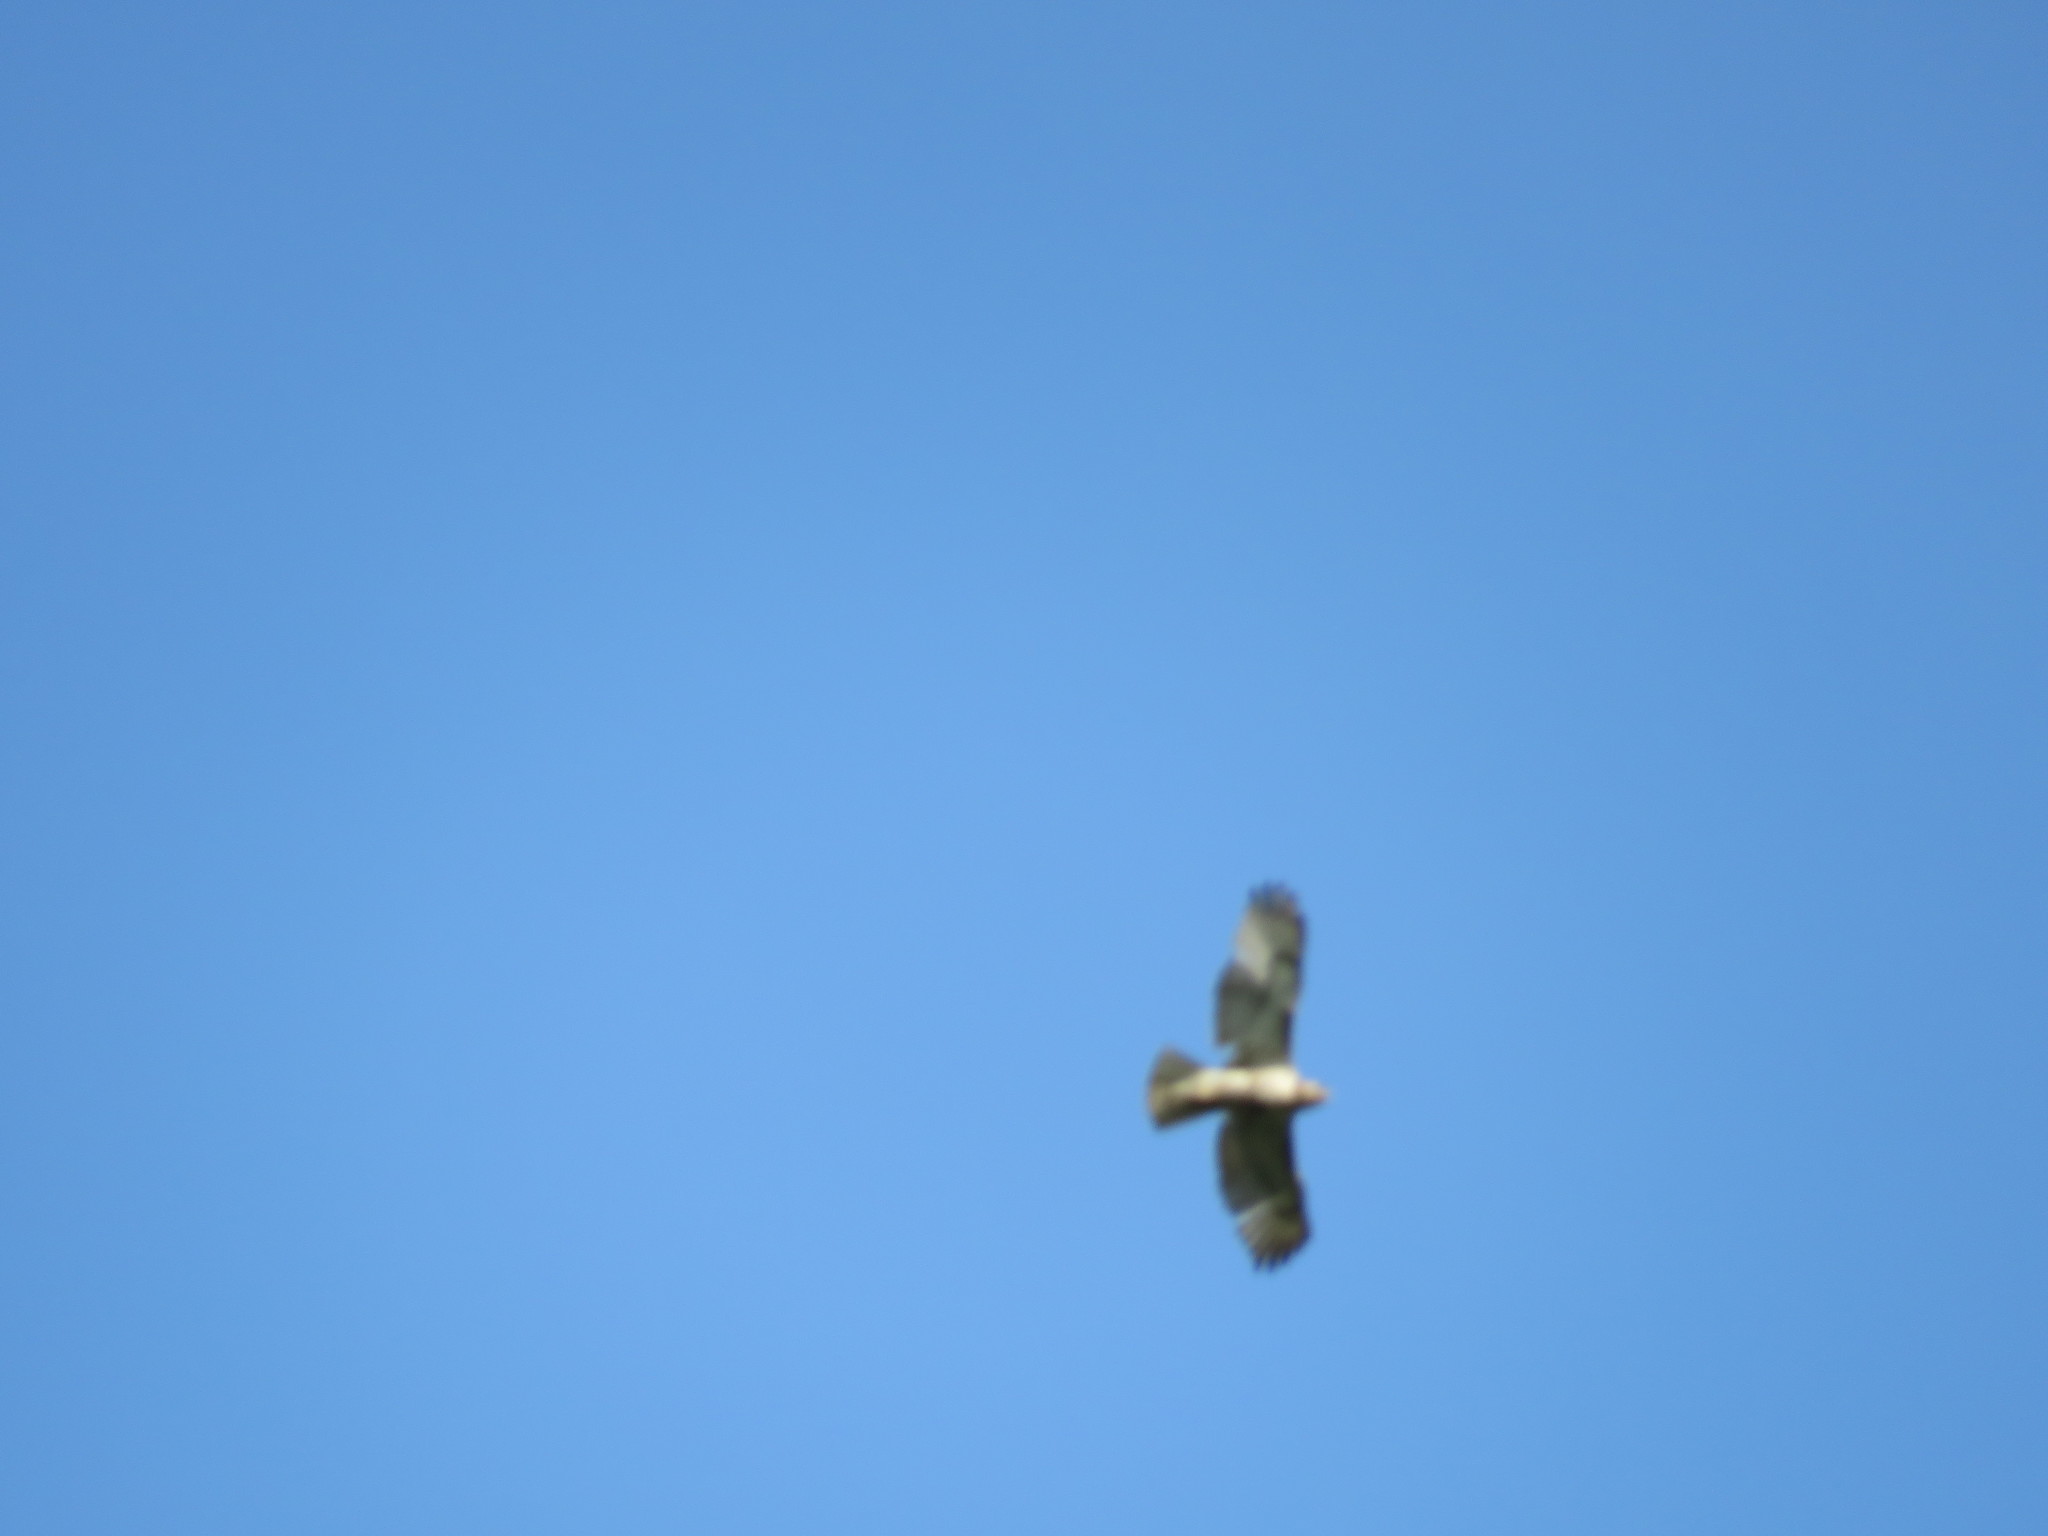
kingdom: Animalia
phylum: Chordata
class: Aves
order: Accipitriformes
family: Accipitridae
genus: Buteo
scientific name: Buteo jamaicensis
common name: Red-tailed hawk
